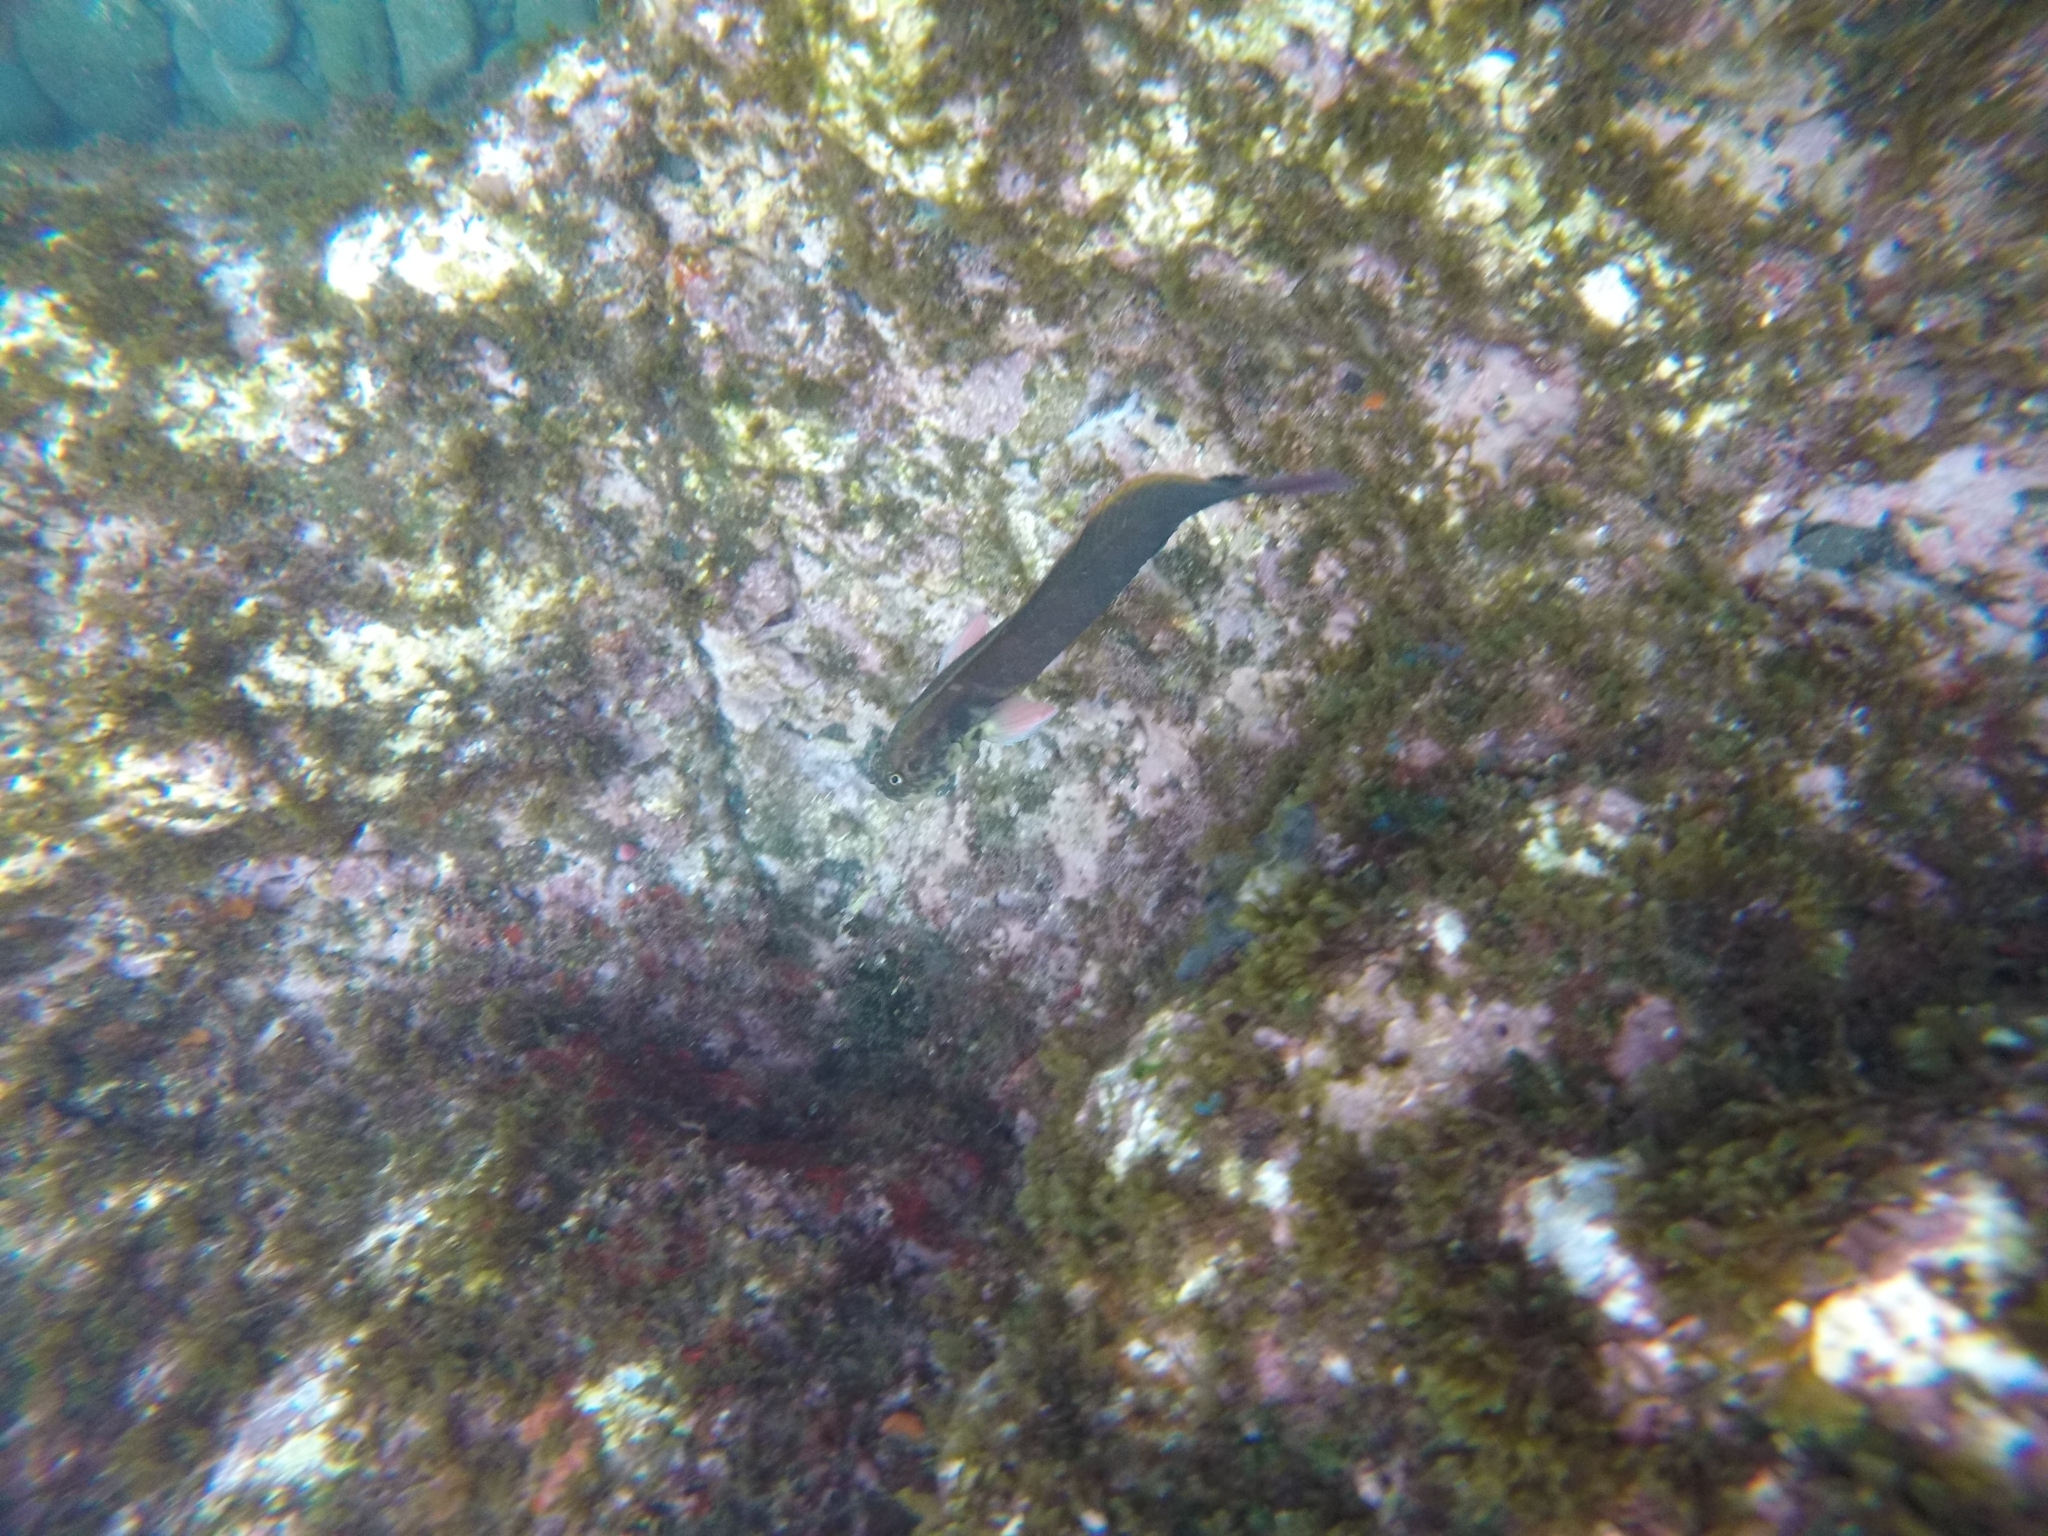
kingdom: Animalia
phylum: Chordata
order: Perciformes
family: Blenniidae
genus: Ophioblennius
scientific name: Ophioblennius atlanticus
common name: Redlip blenny
